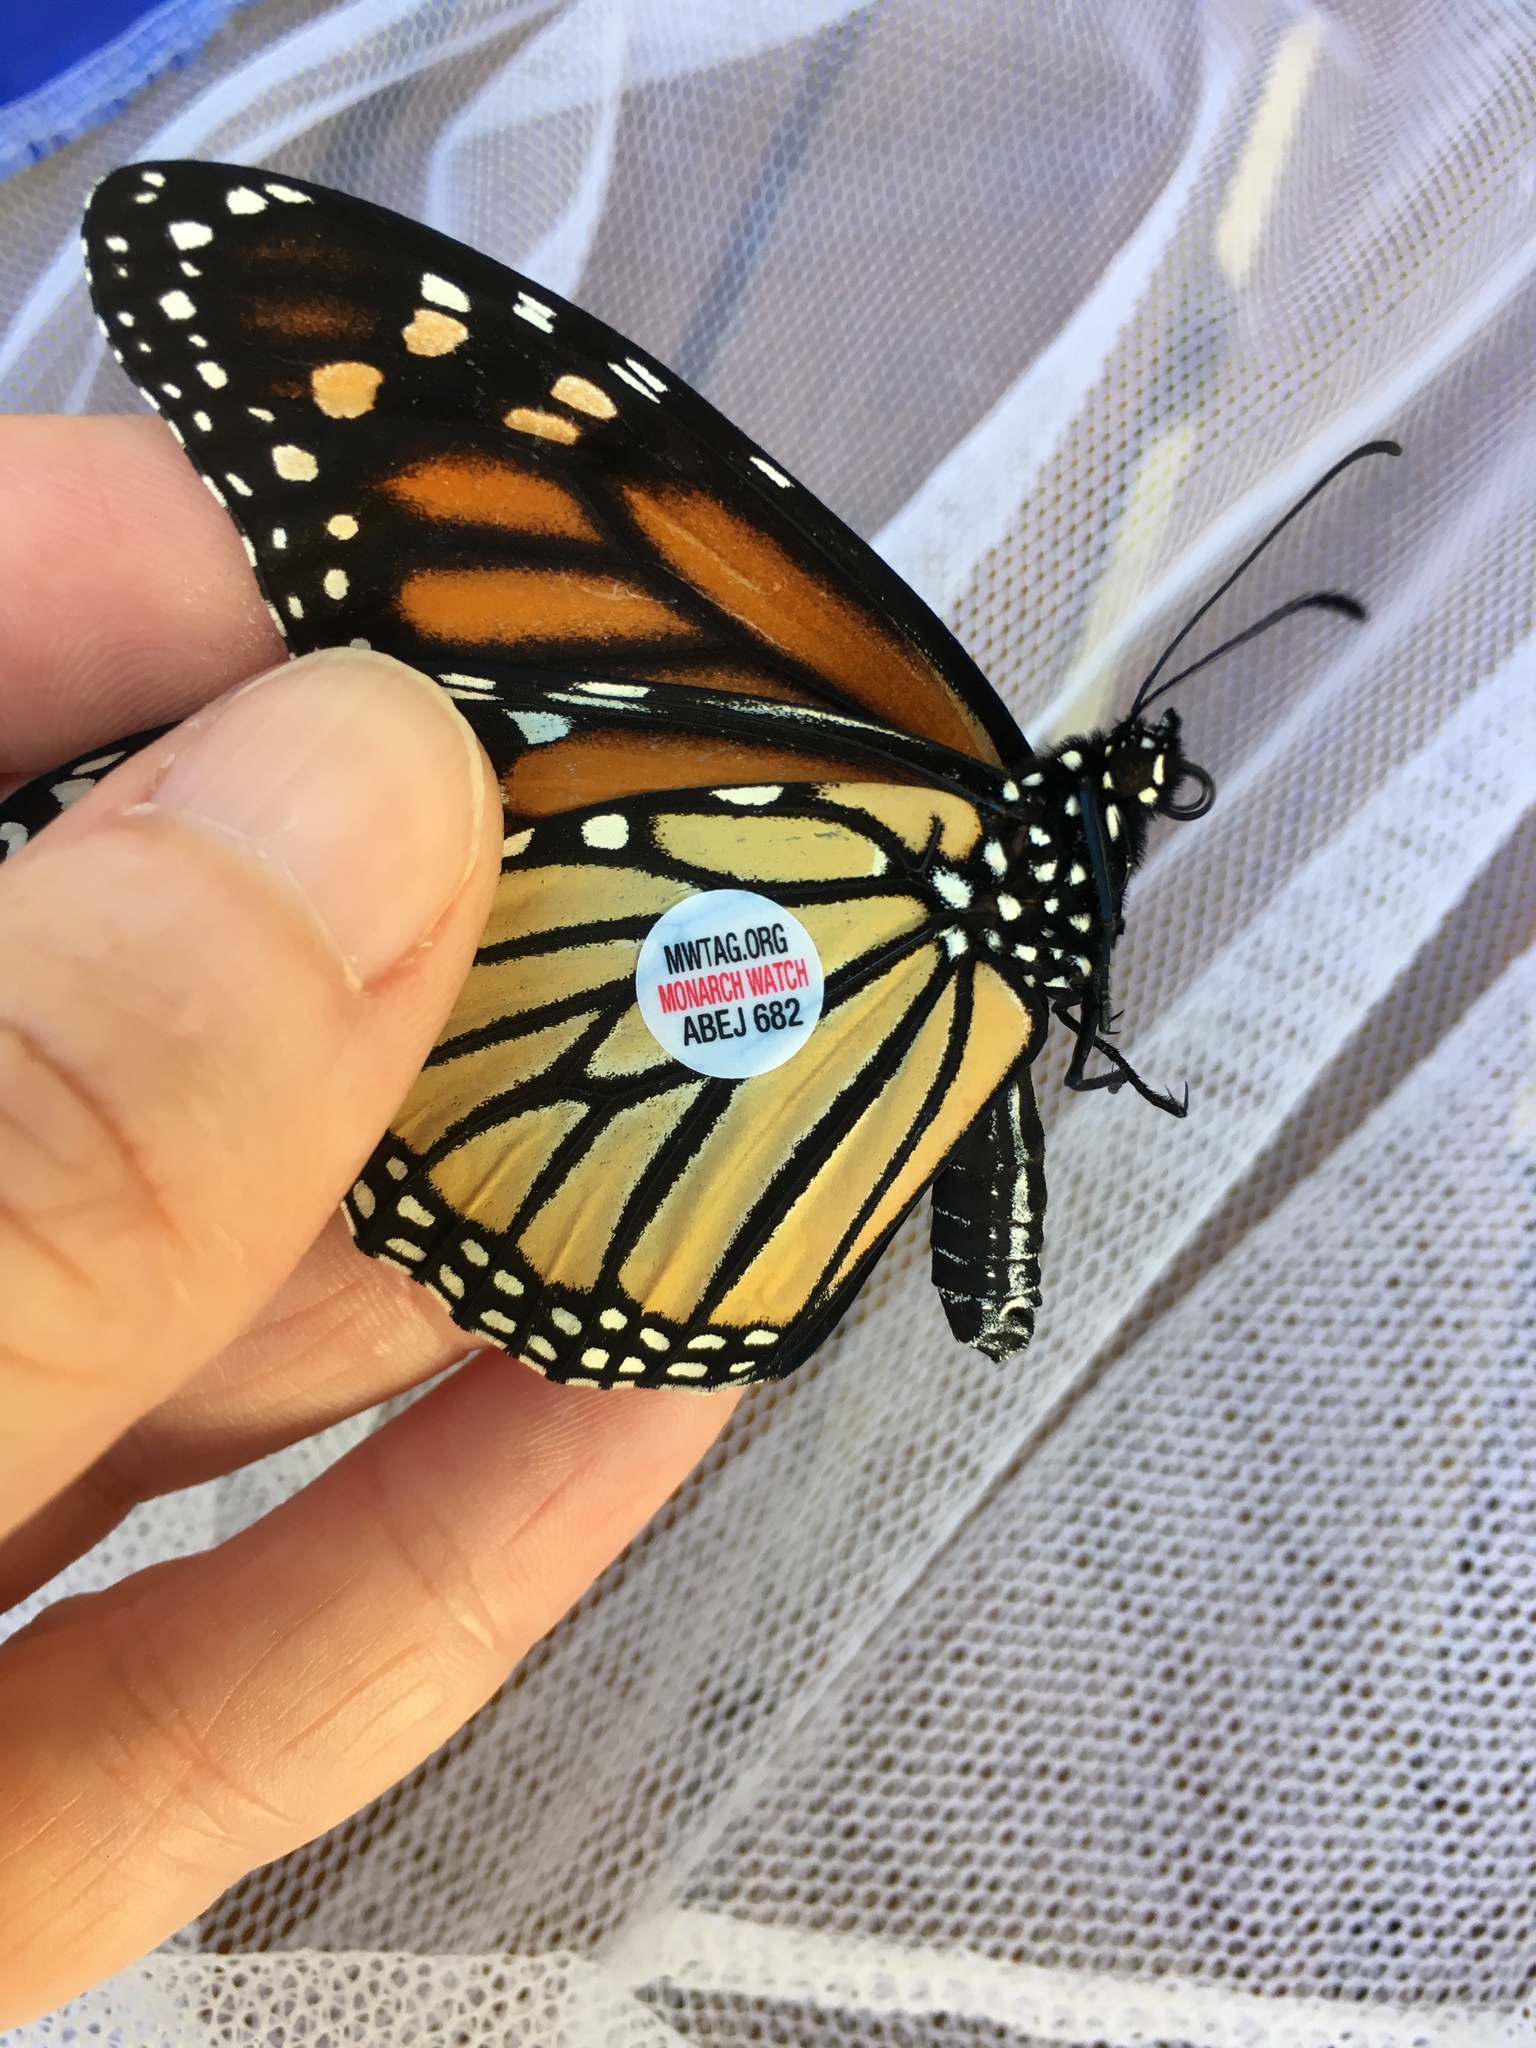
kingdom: Animalia
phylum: Arthropoda
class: Insecta
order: Lepidoptera
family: Nymphalidae
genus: Danaus
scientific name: Danaus plexippus
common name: Monarch
